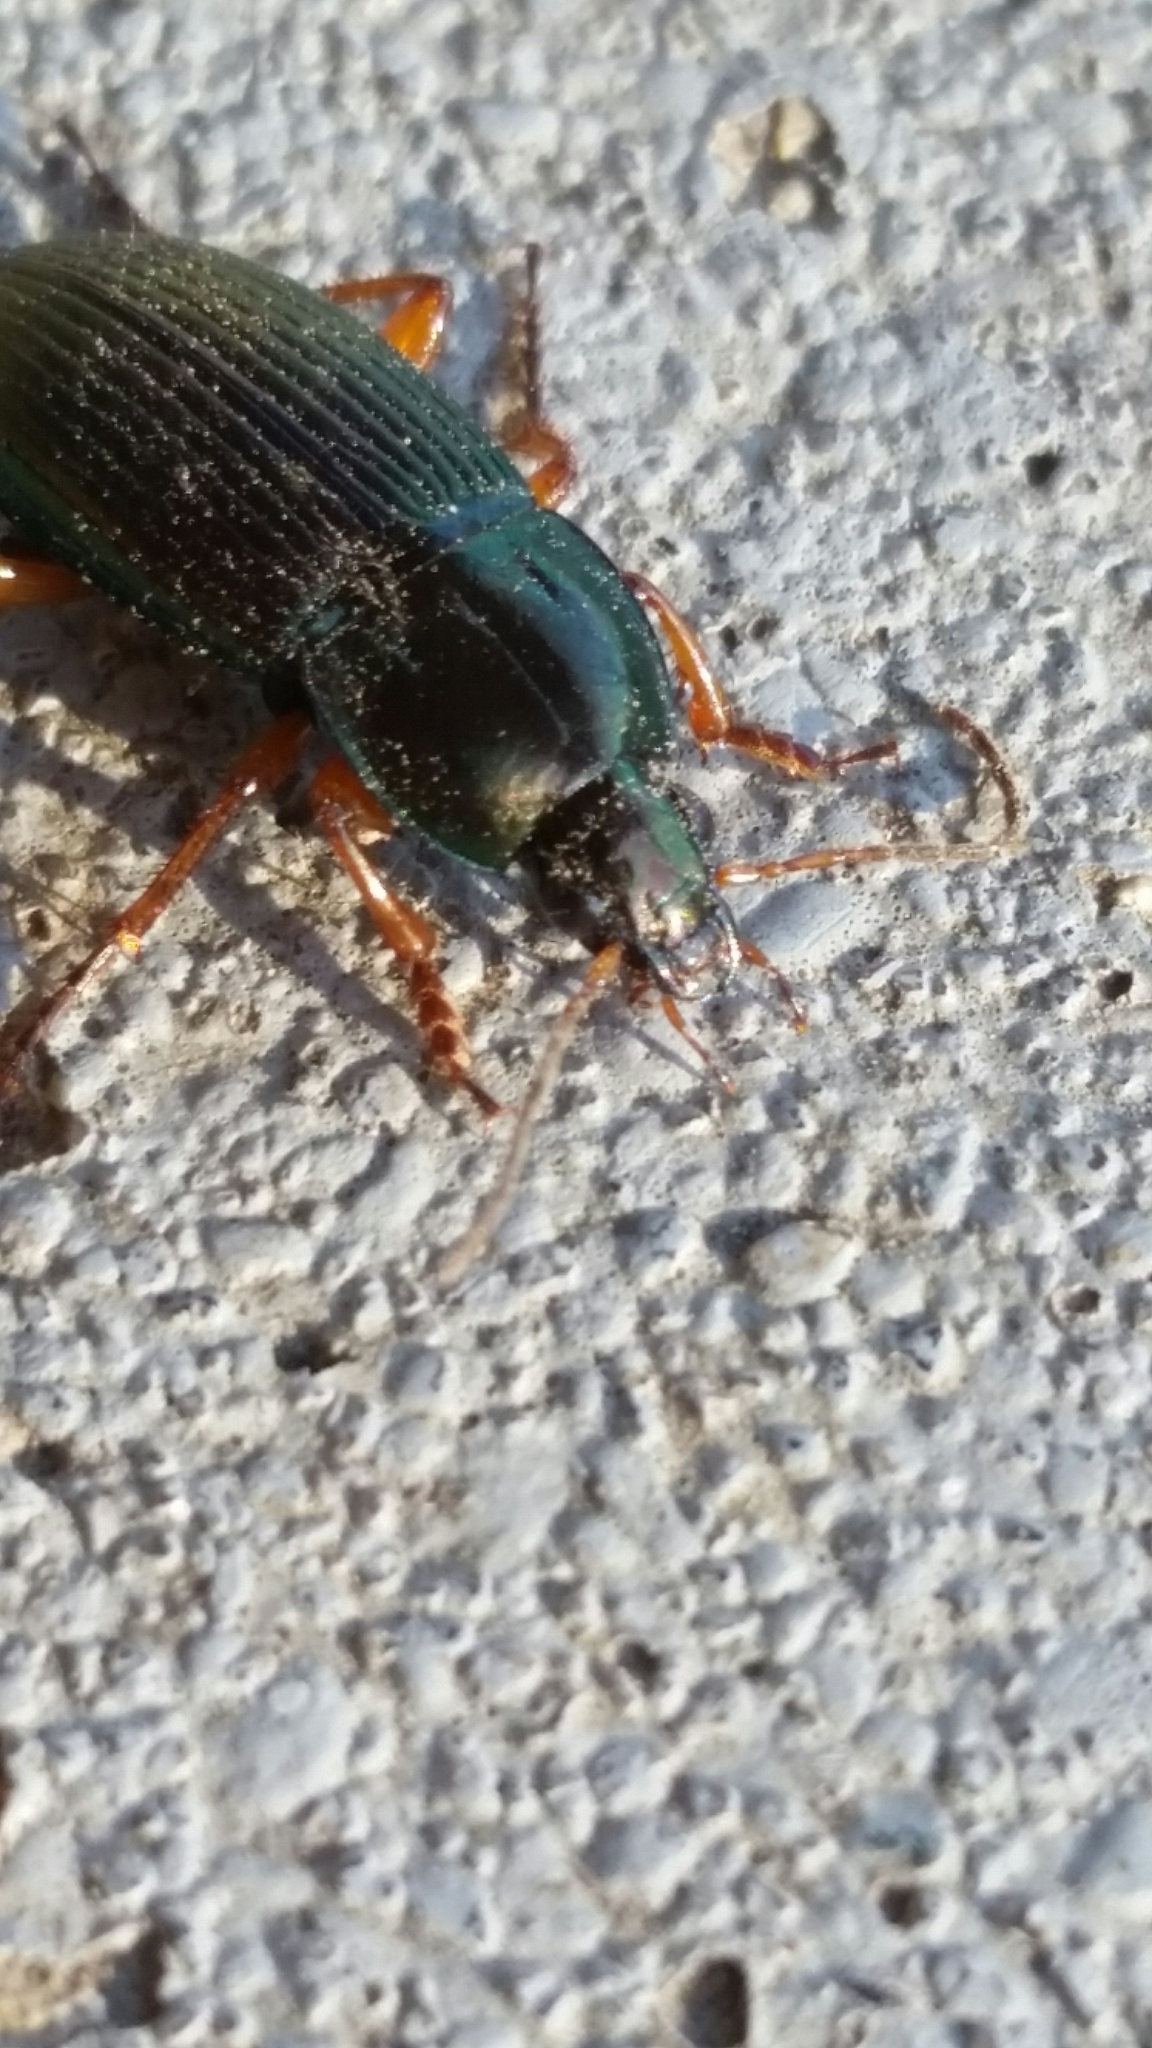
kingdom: Animalia
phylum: Arthropoda
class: Insecta
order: Coleoptera
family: Carabidae
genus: Poecilus
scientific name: Poecilus lucublandus
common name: Woodland ground beetle
